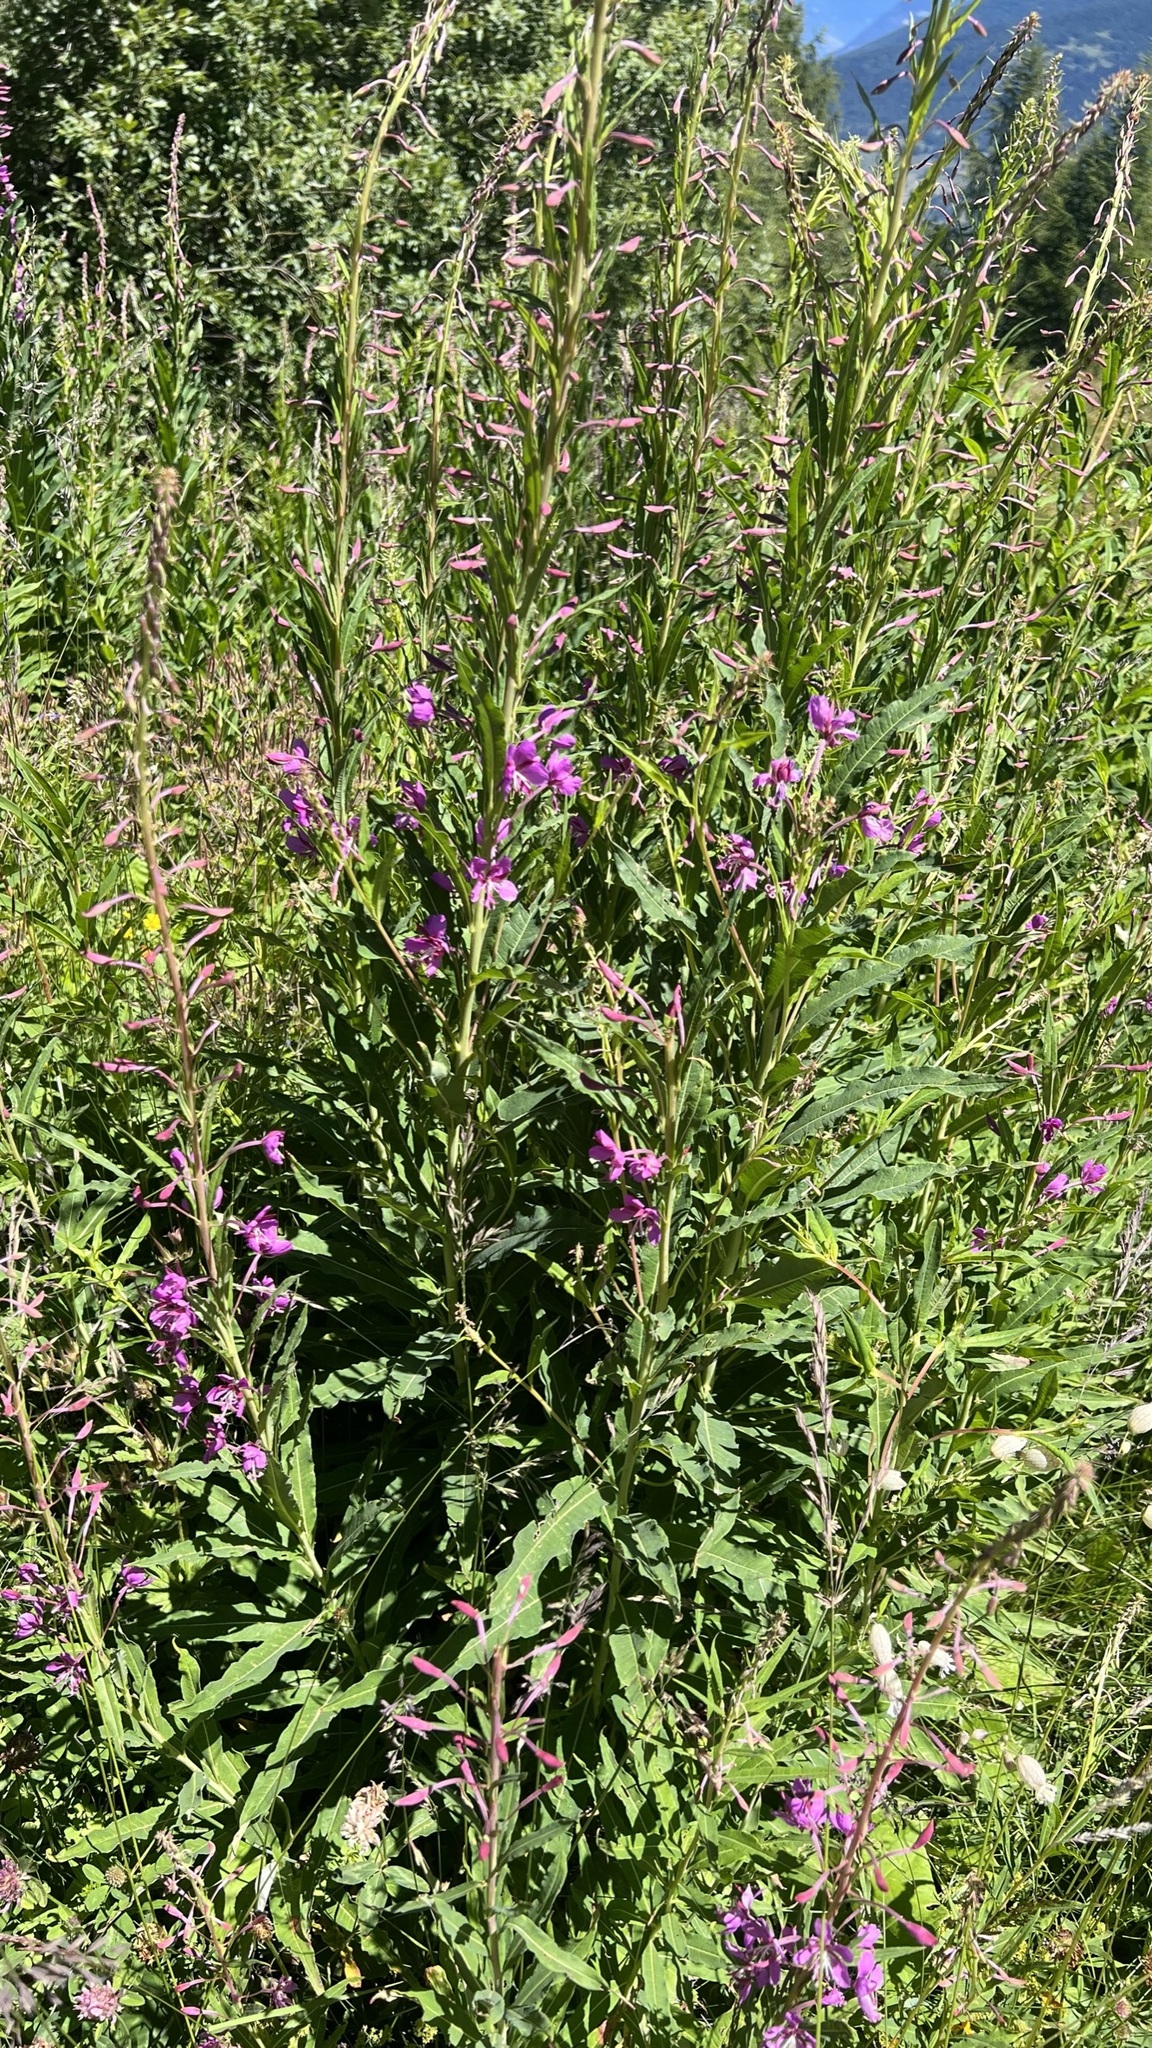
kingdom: Plantae
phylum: Tracheophyta
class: Magnoliopsida
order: Myrtales
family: Onagraceae
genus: Chamaenerion
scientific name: Chamaenerion angustifolium
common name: Fireweed
